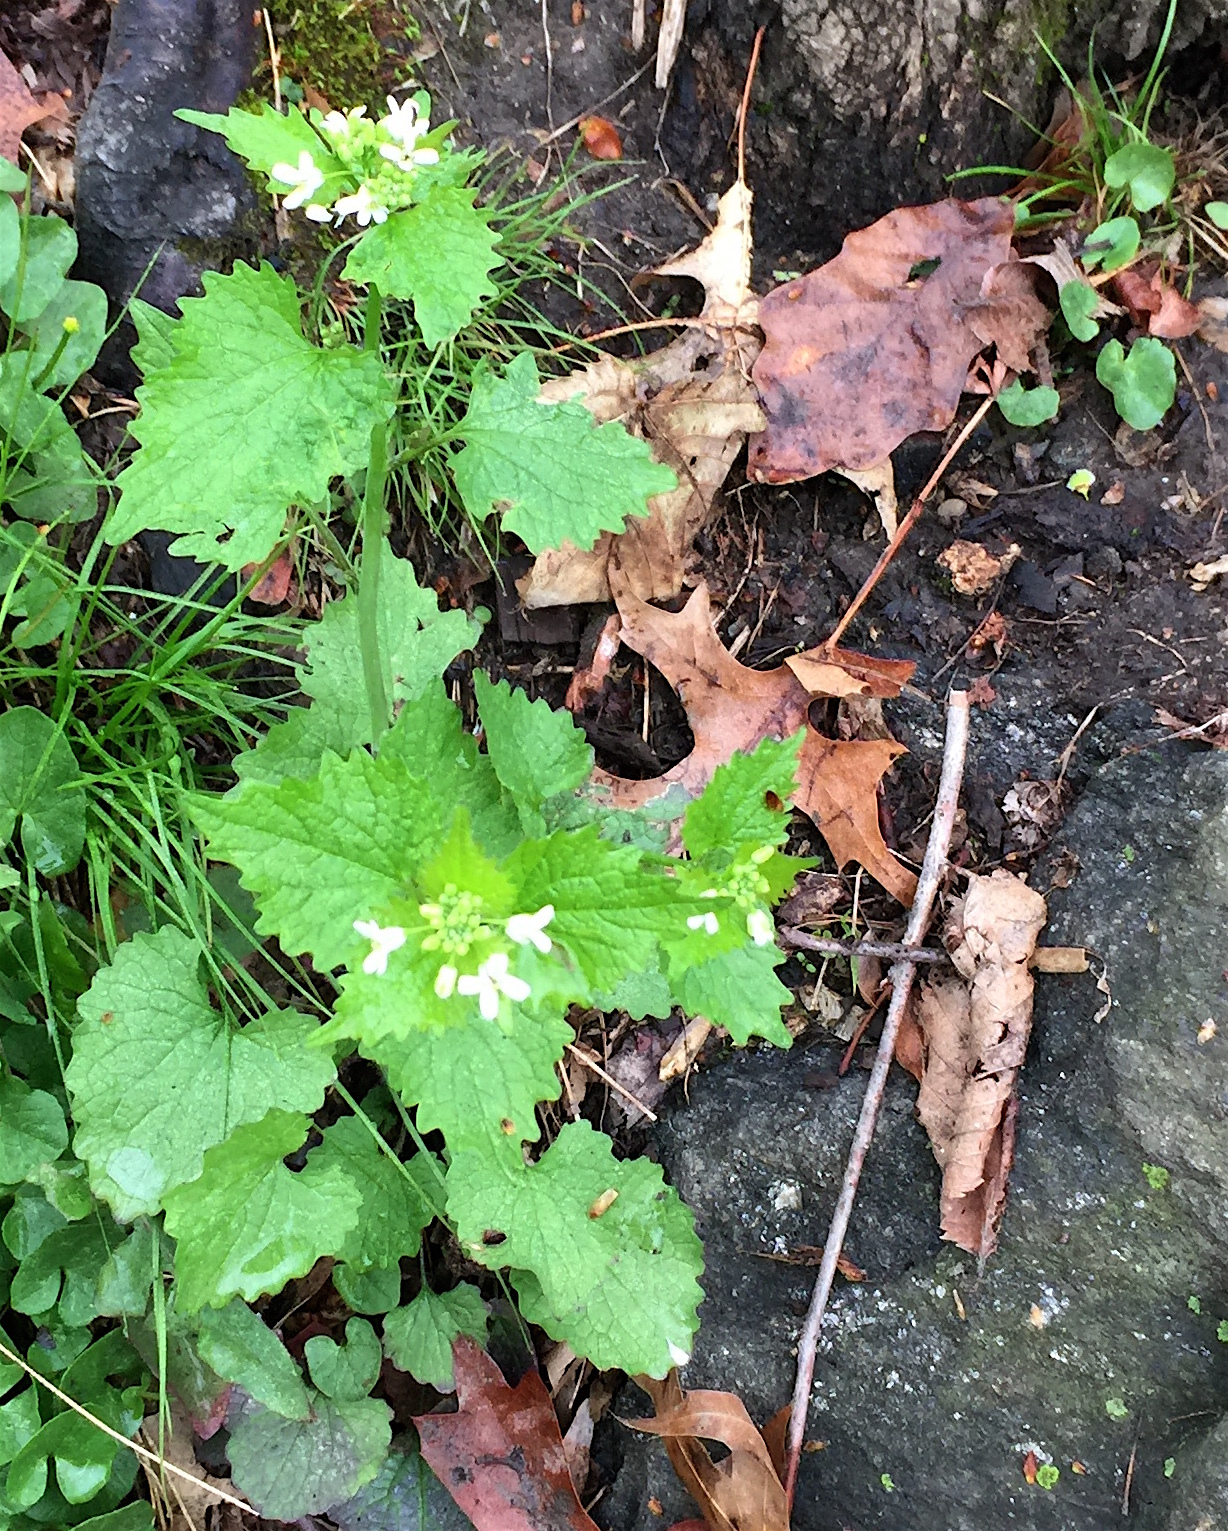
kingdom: Plantae
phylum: Tracheophyta
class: Magnoliopsida
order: Brassicales
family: Brassicaceae
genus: Alliaria
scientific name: Alliaria petiolata
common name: Garlic mustard
